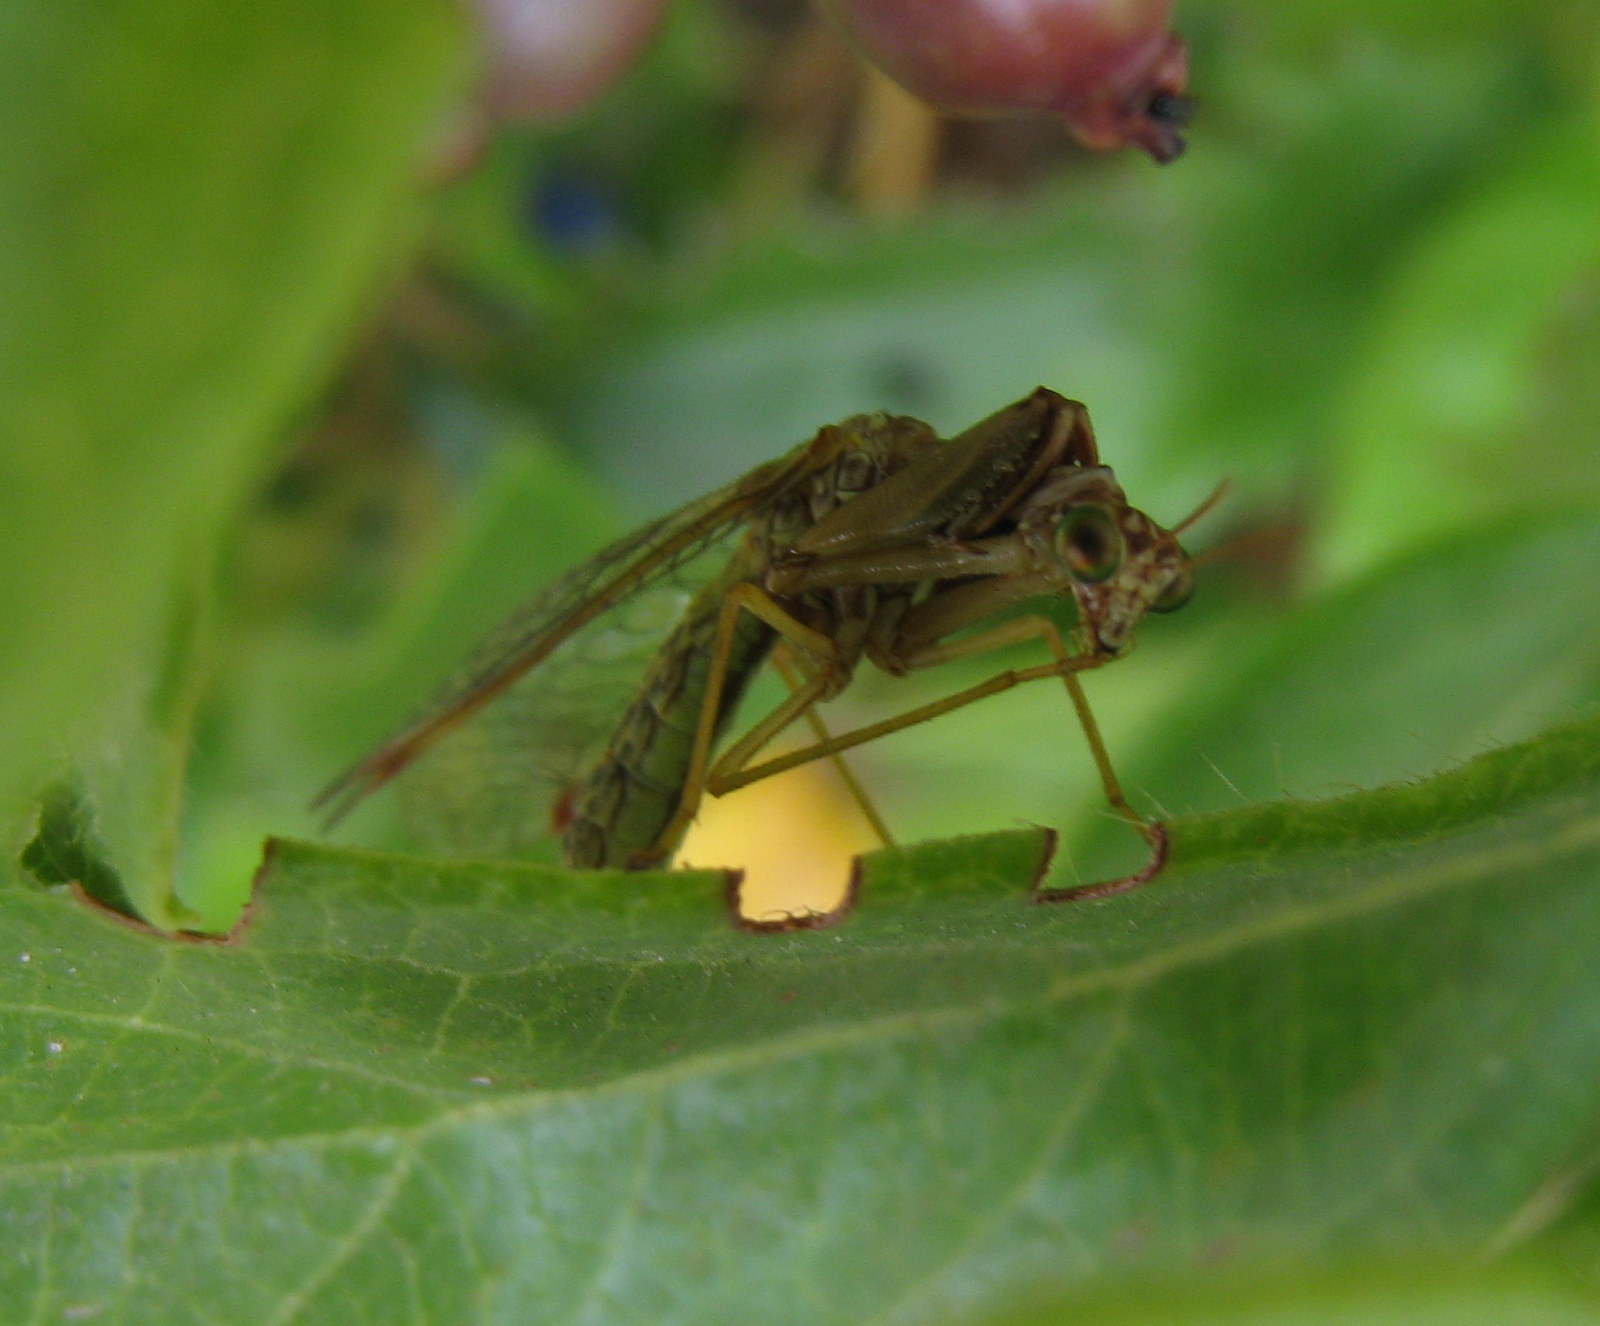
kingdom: Animalia
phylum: Arthropoda
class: Insecta
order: Neuroptera
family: Mantispidae
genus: Mantispa
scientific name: Mantispa styriaca
